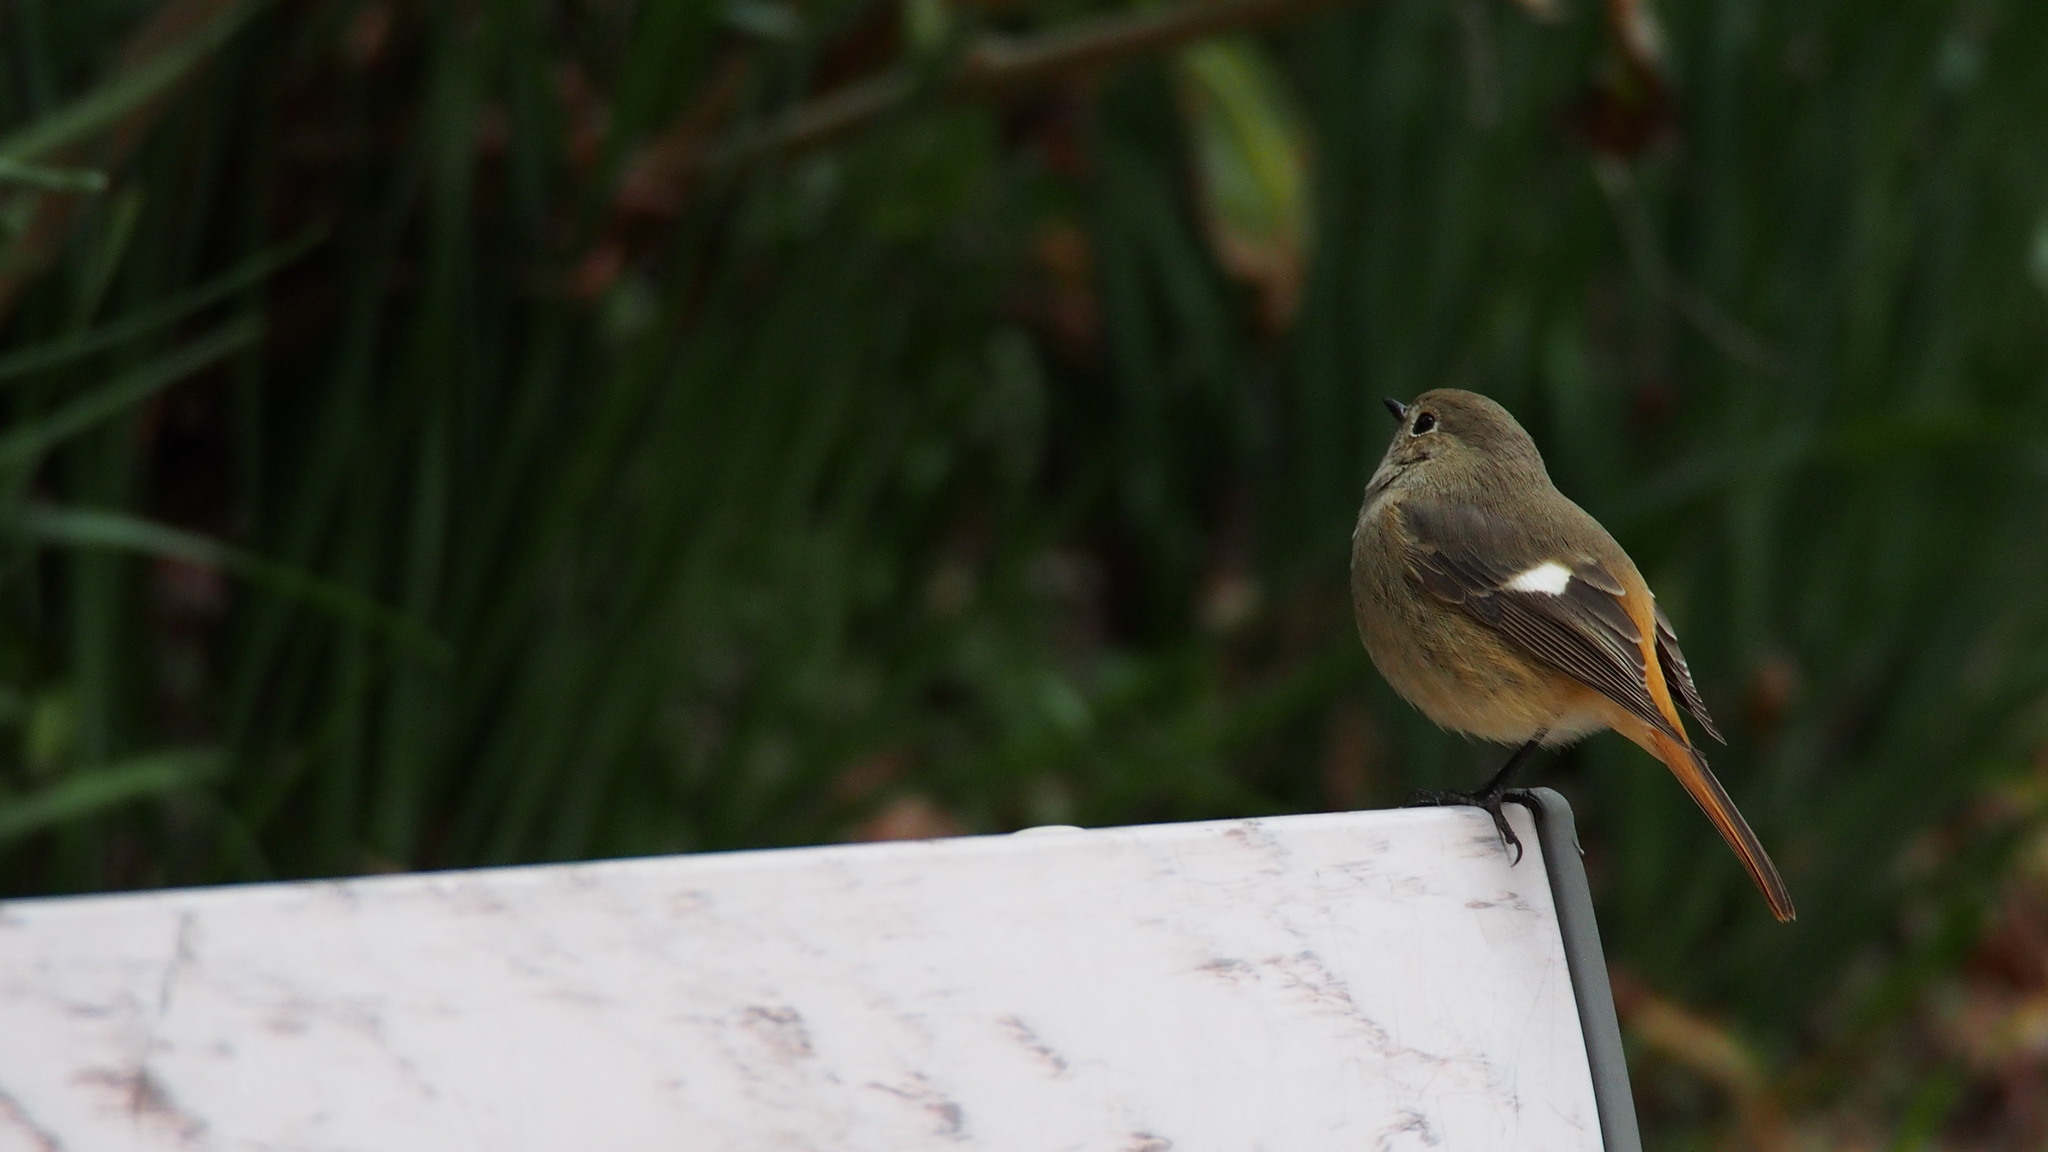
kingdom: Animalia
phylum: Chordata
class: Aves
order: Passeriformes
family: Muscicapidae
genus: Phoenicurus
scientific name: Phoenicurus auroreus
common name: Daurian redstart
